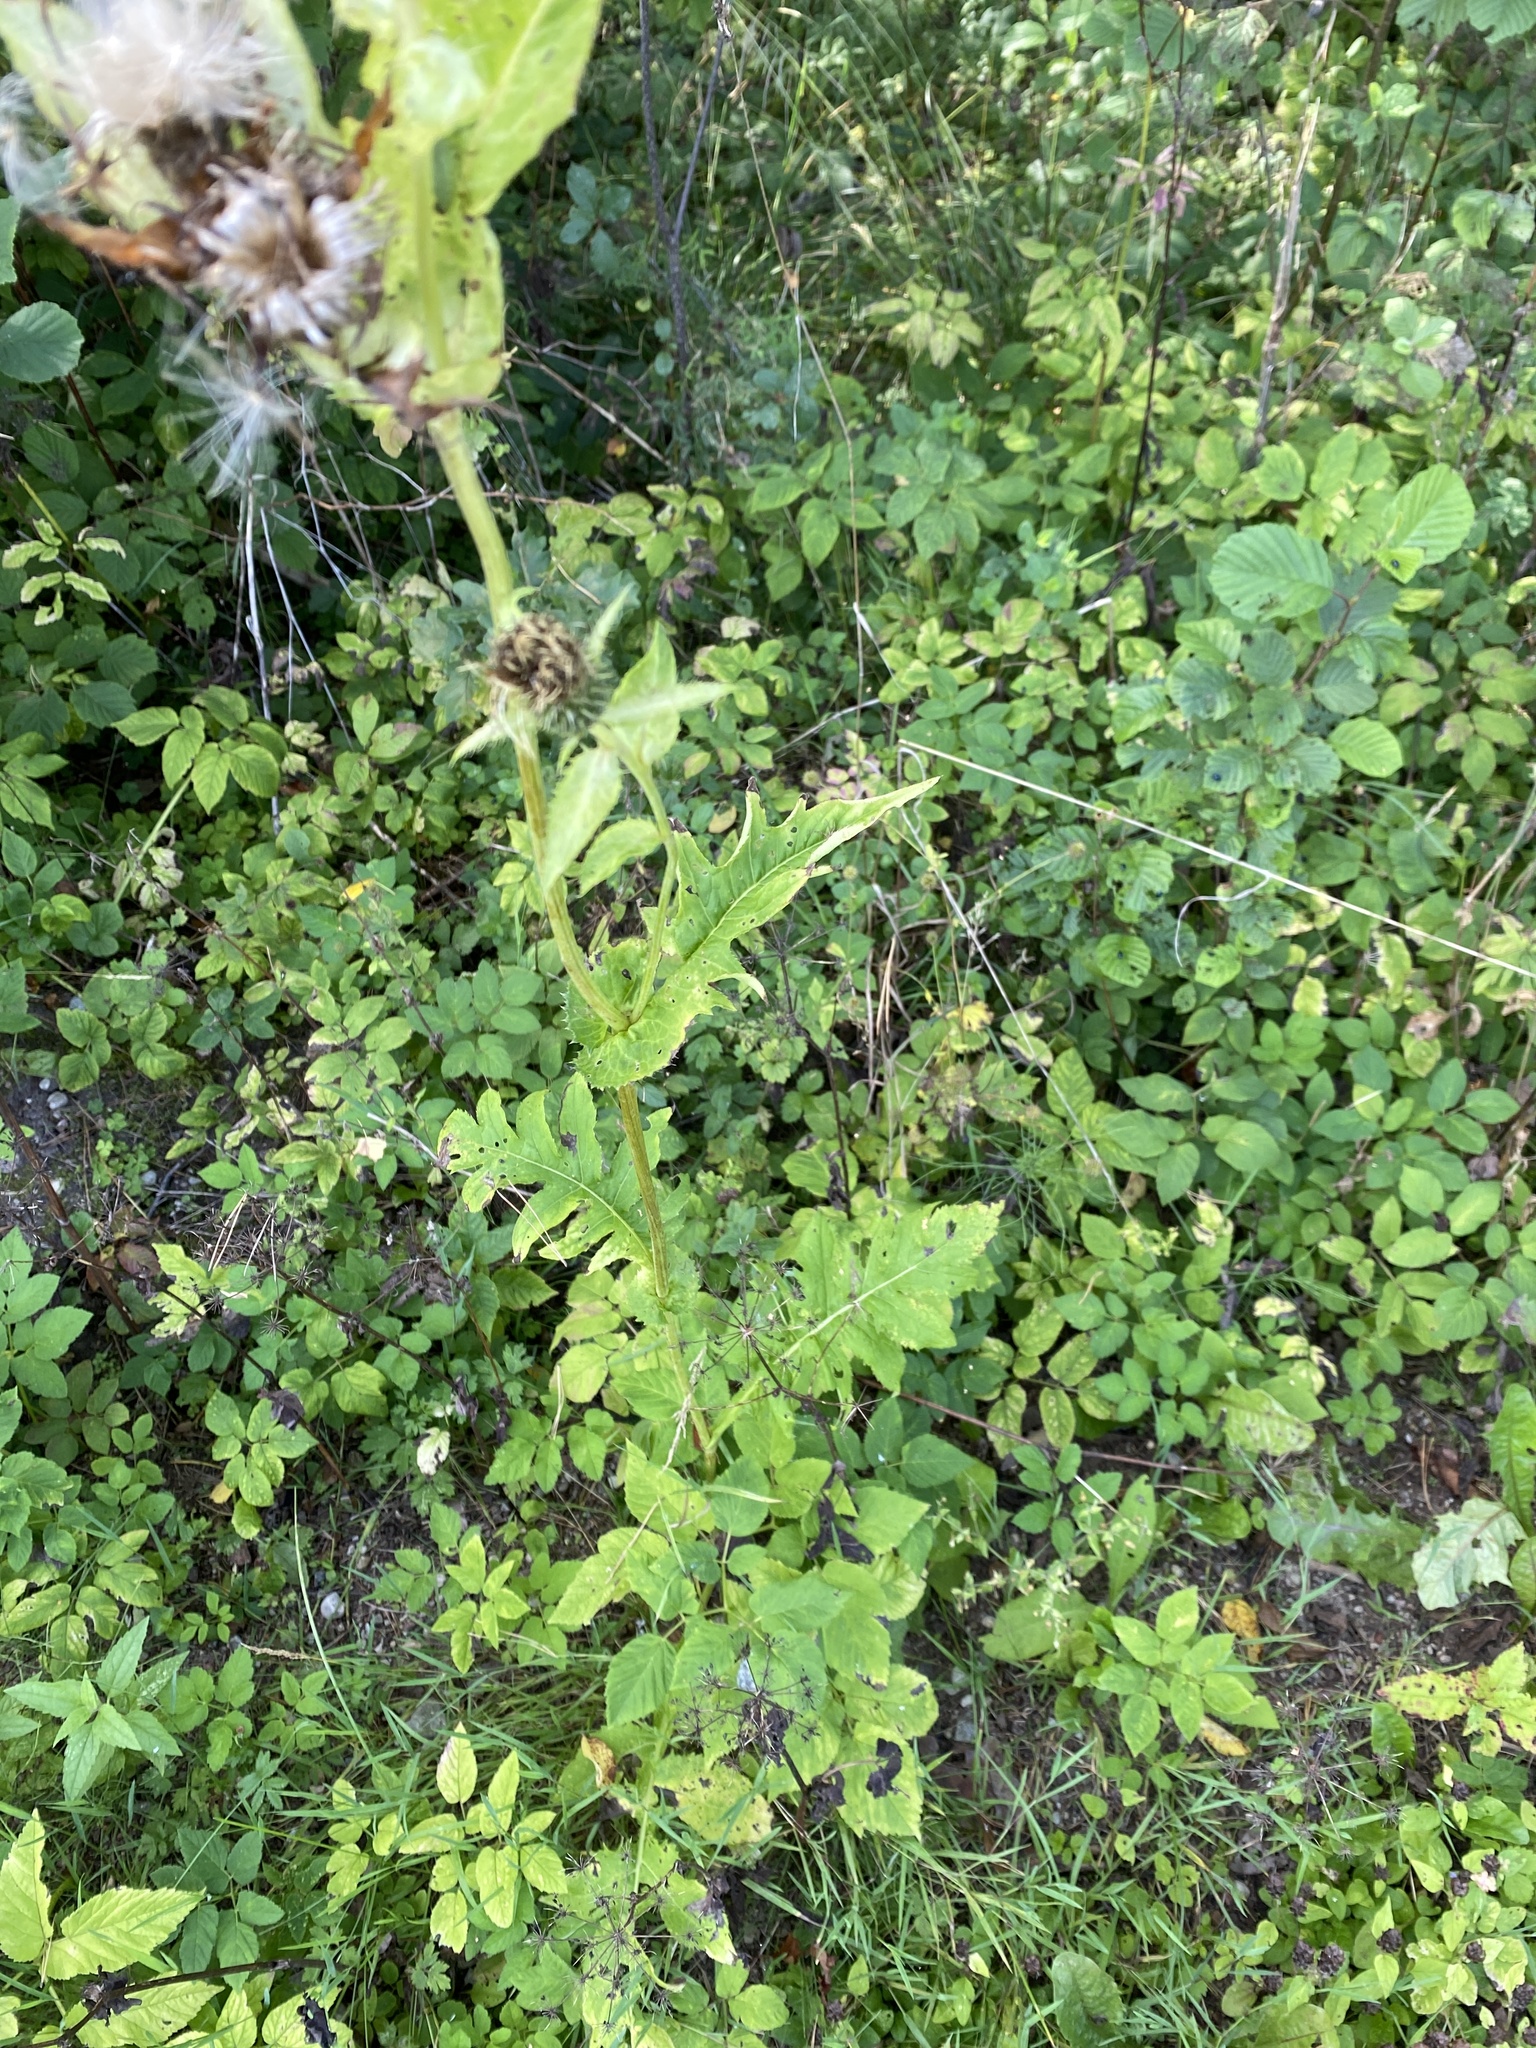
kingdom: Plantae
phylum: Tracheophyta
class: Magnoliopsida
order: Asterales
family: Asteraceae
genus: Cirsium
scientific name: Cirsium oleraceum
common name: Cabbage thistle
